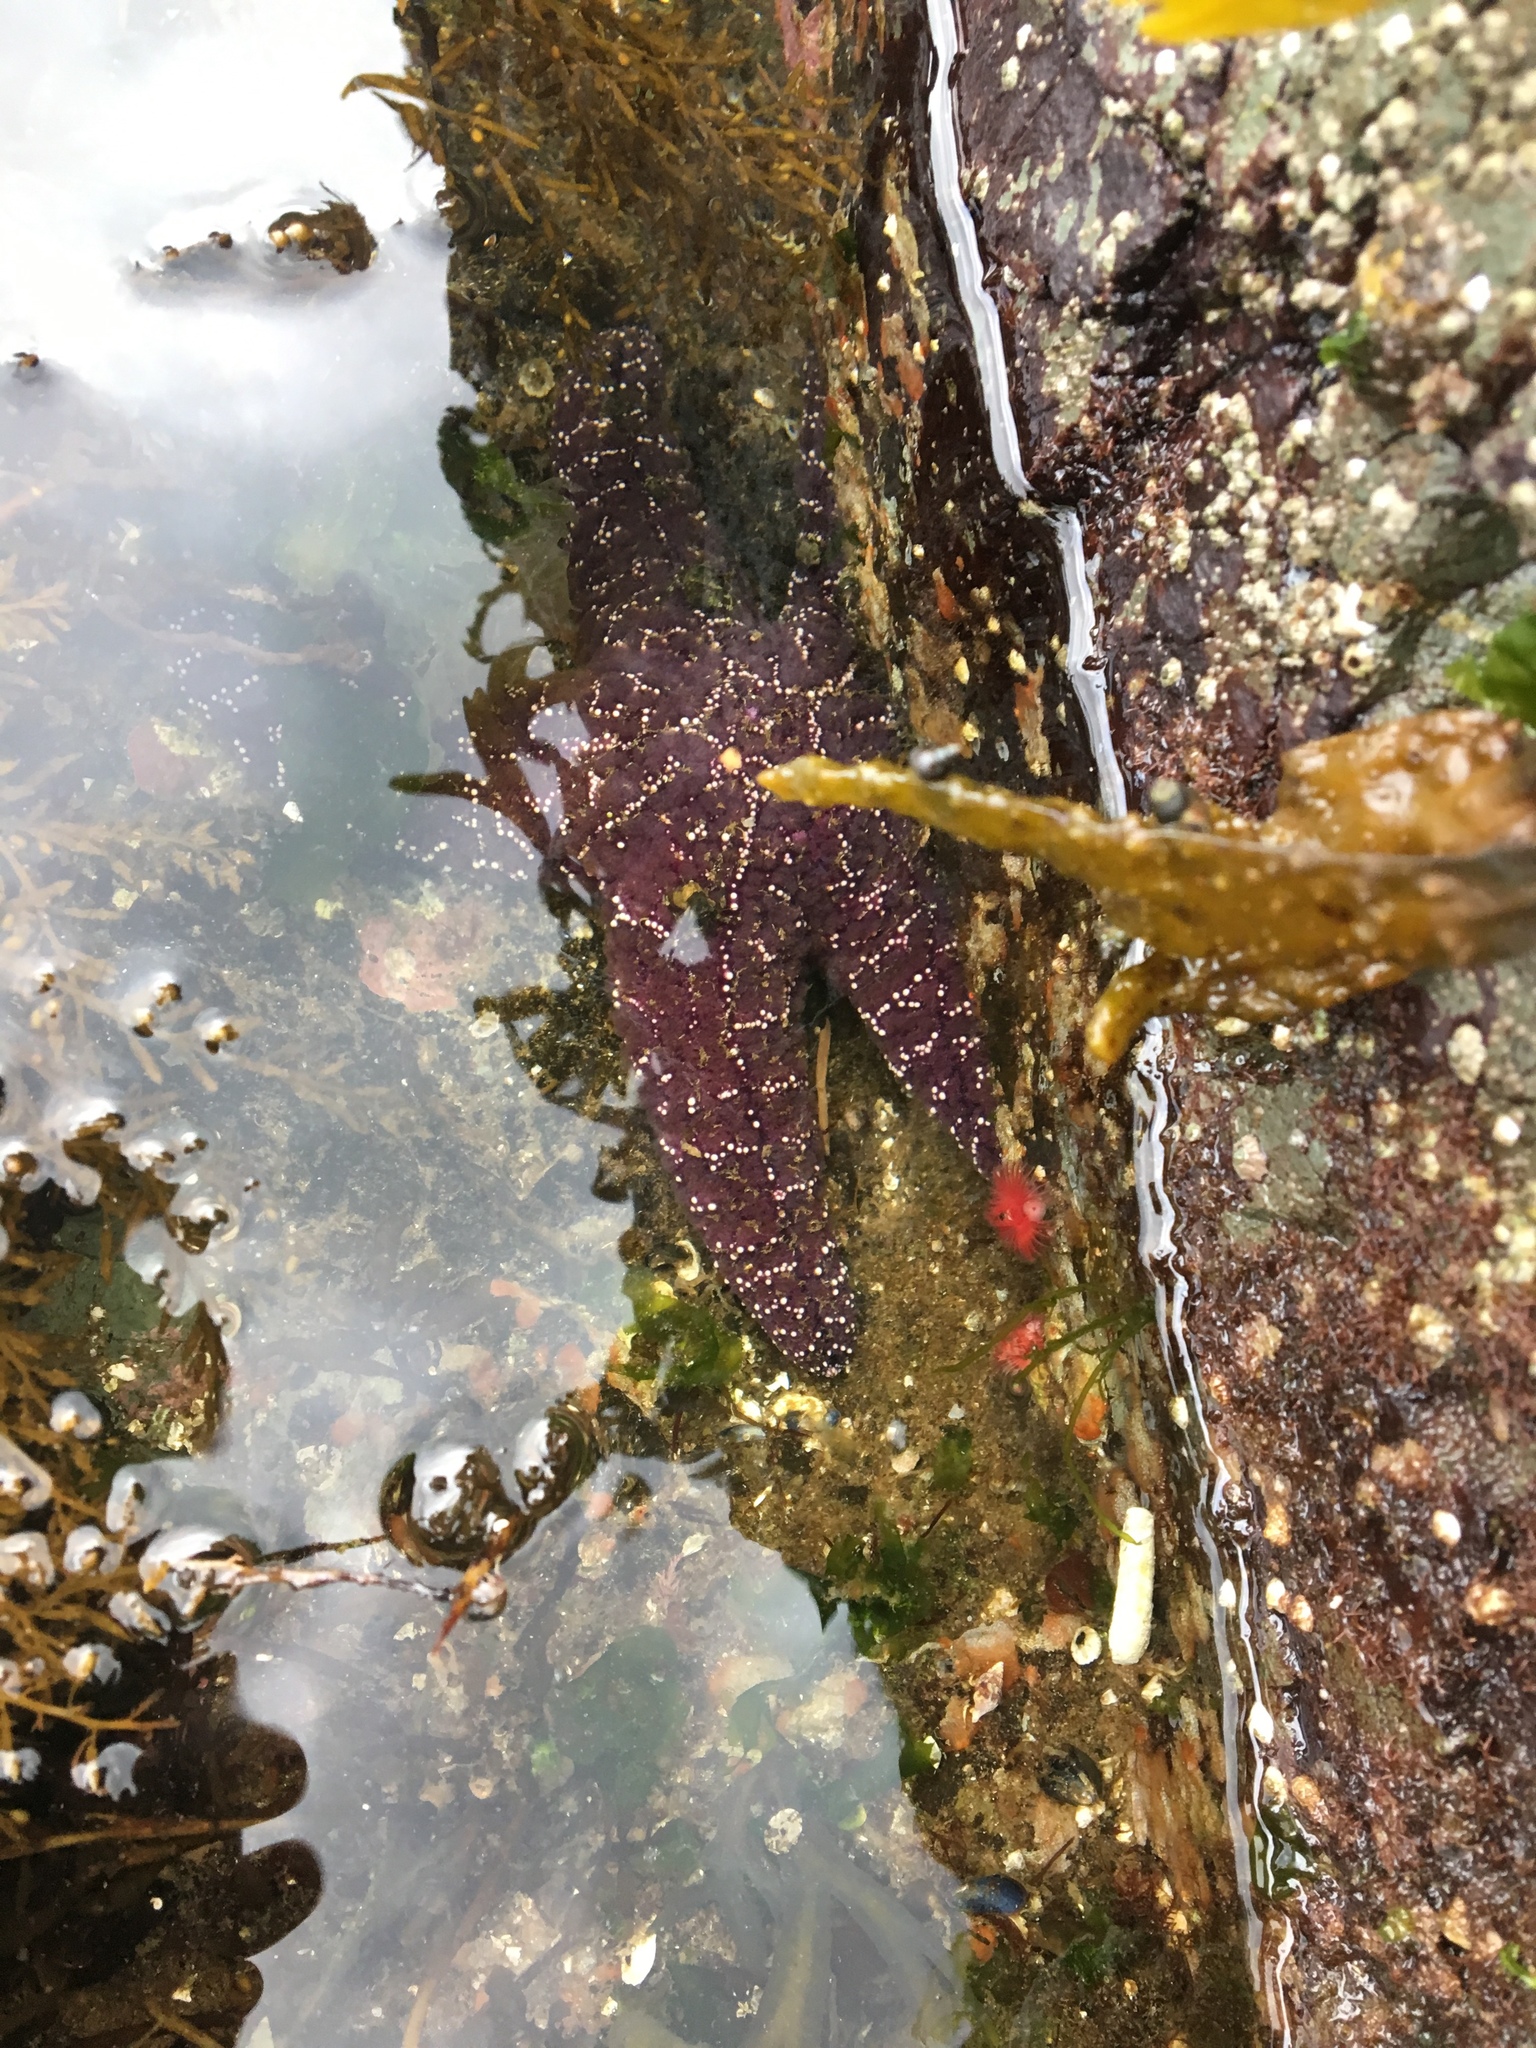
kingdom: Animalia
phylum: Echinodermata
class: Asteroidea
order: Forcipulatida
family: Asteriidae
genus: Pisaster
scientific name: Pisaster ochraceus
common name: Ochre stars
